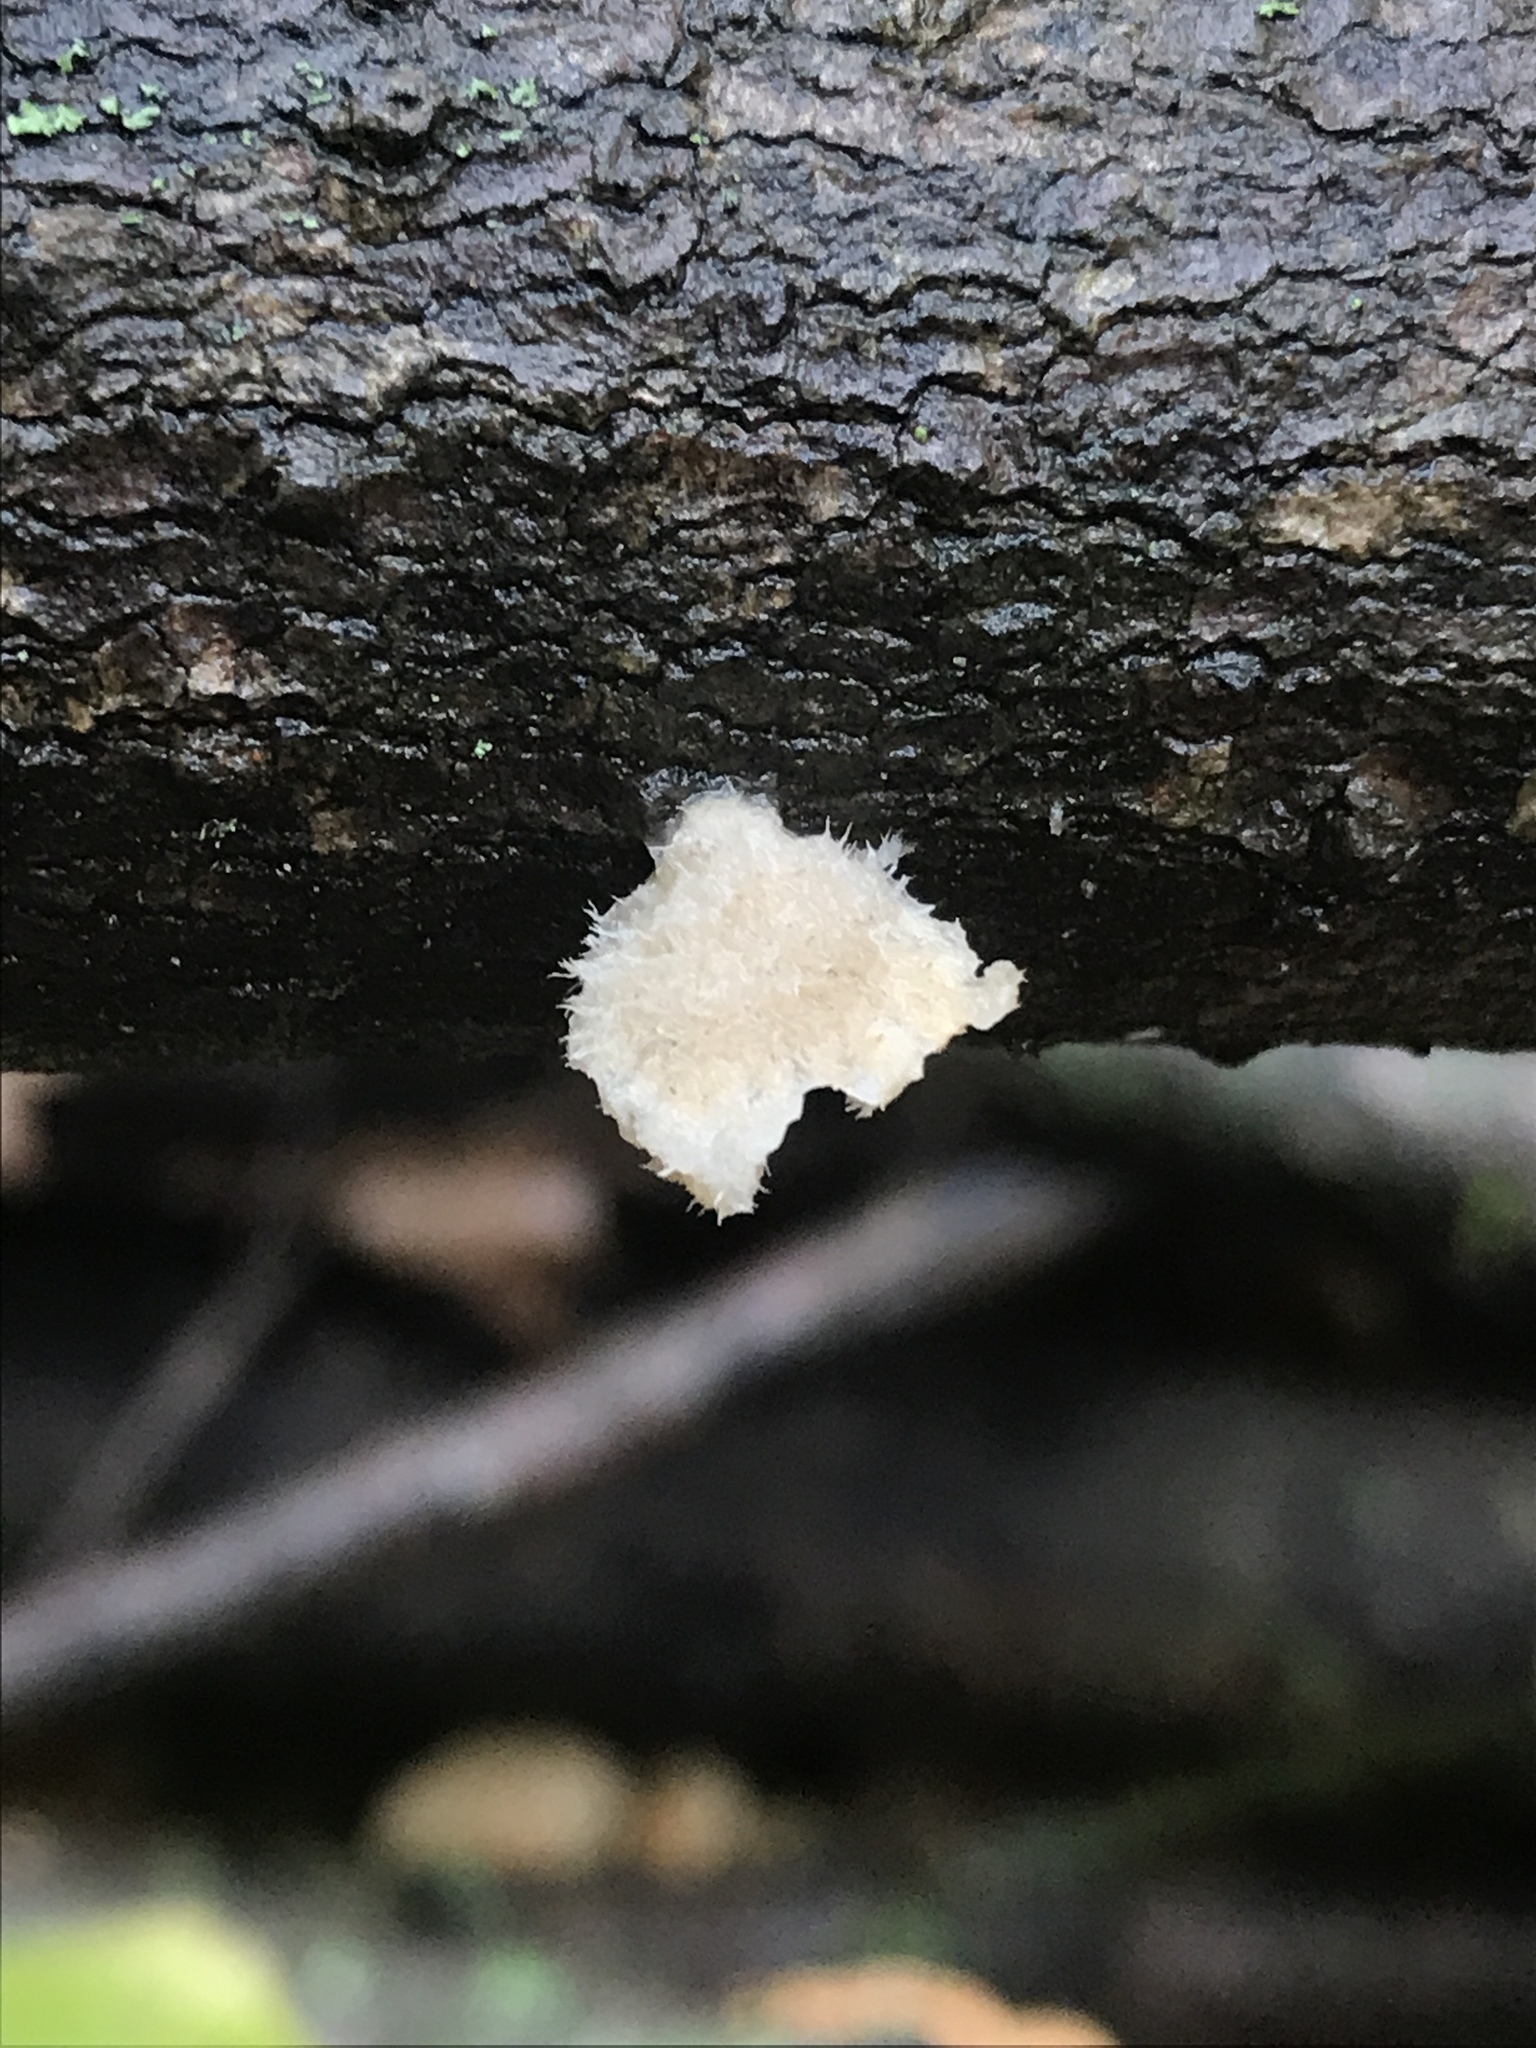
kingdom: Fungi
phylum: Basidiomycota
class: Agaricomycetes
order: Agaricales
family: Schizophyllaceae
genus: Schizophyllum
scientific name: Schizophyllum commune
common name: Common porecrust
